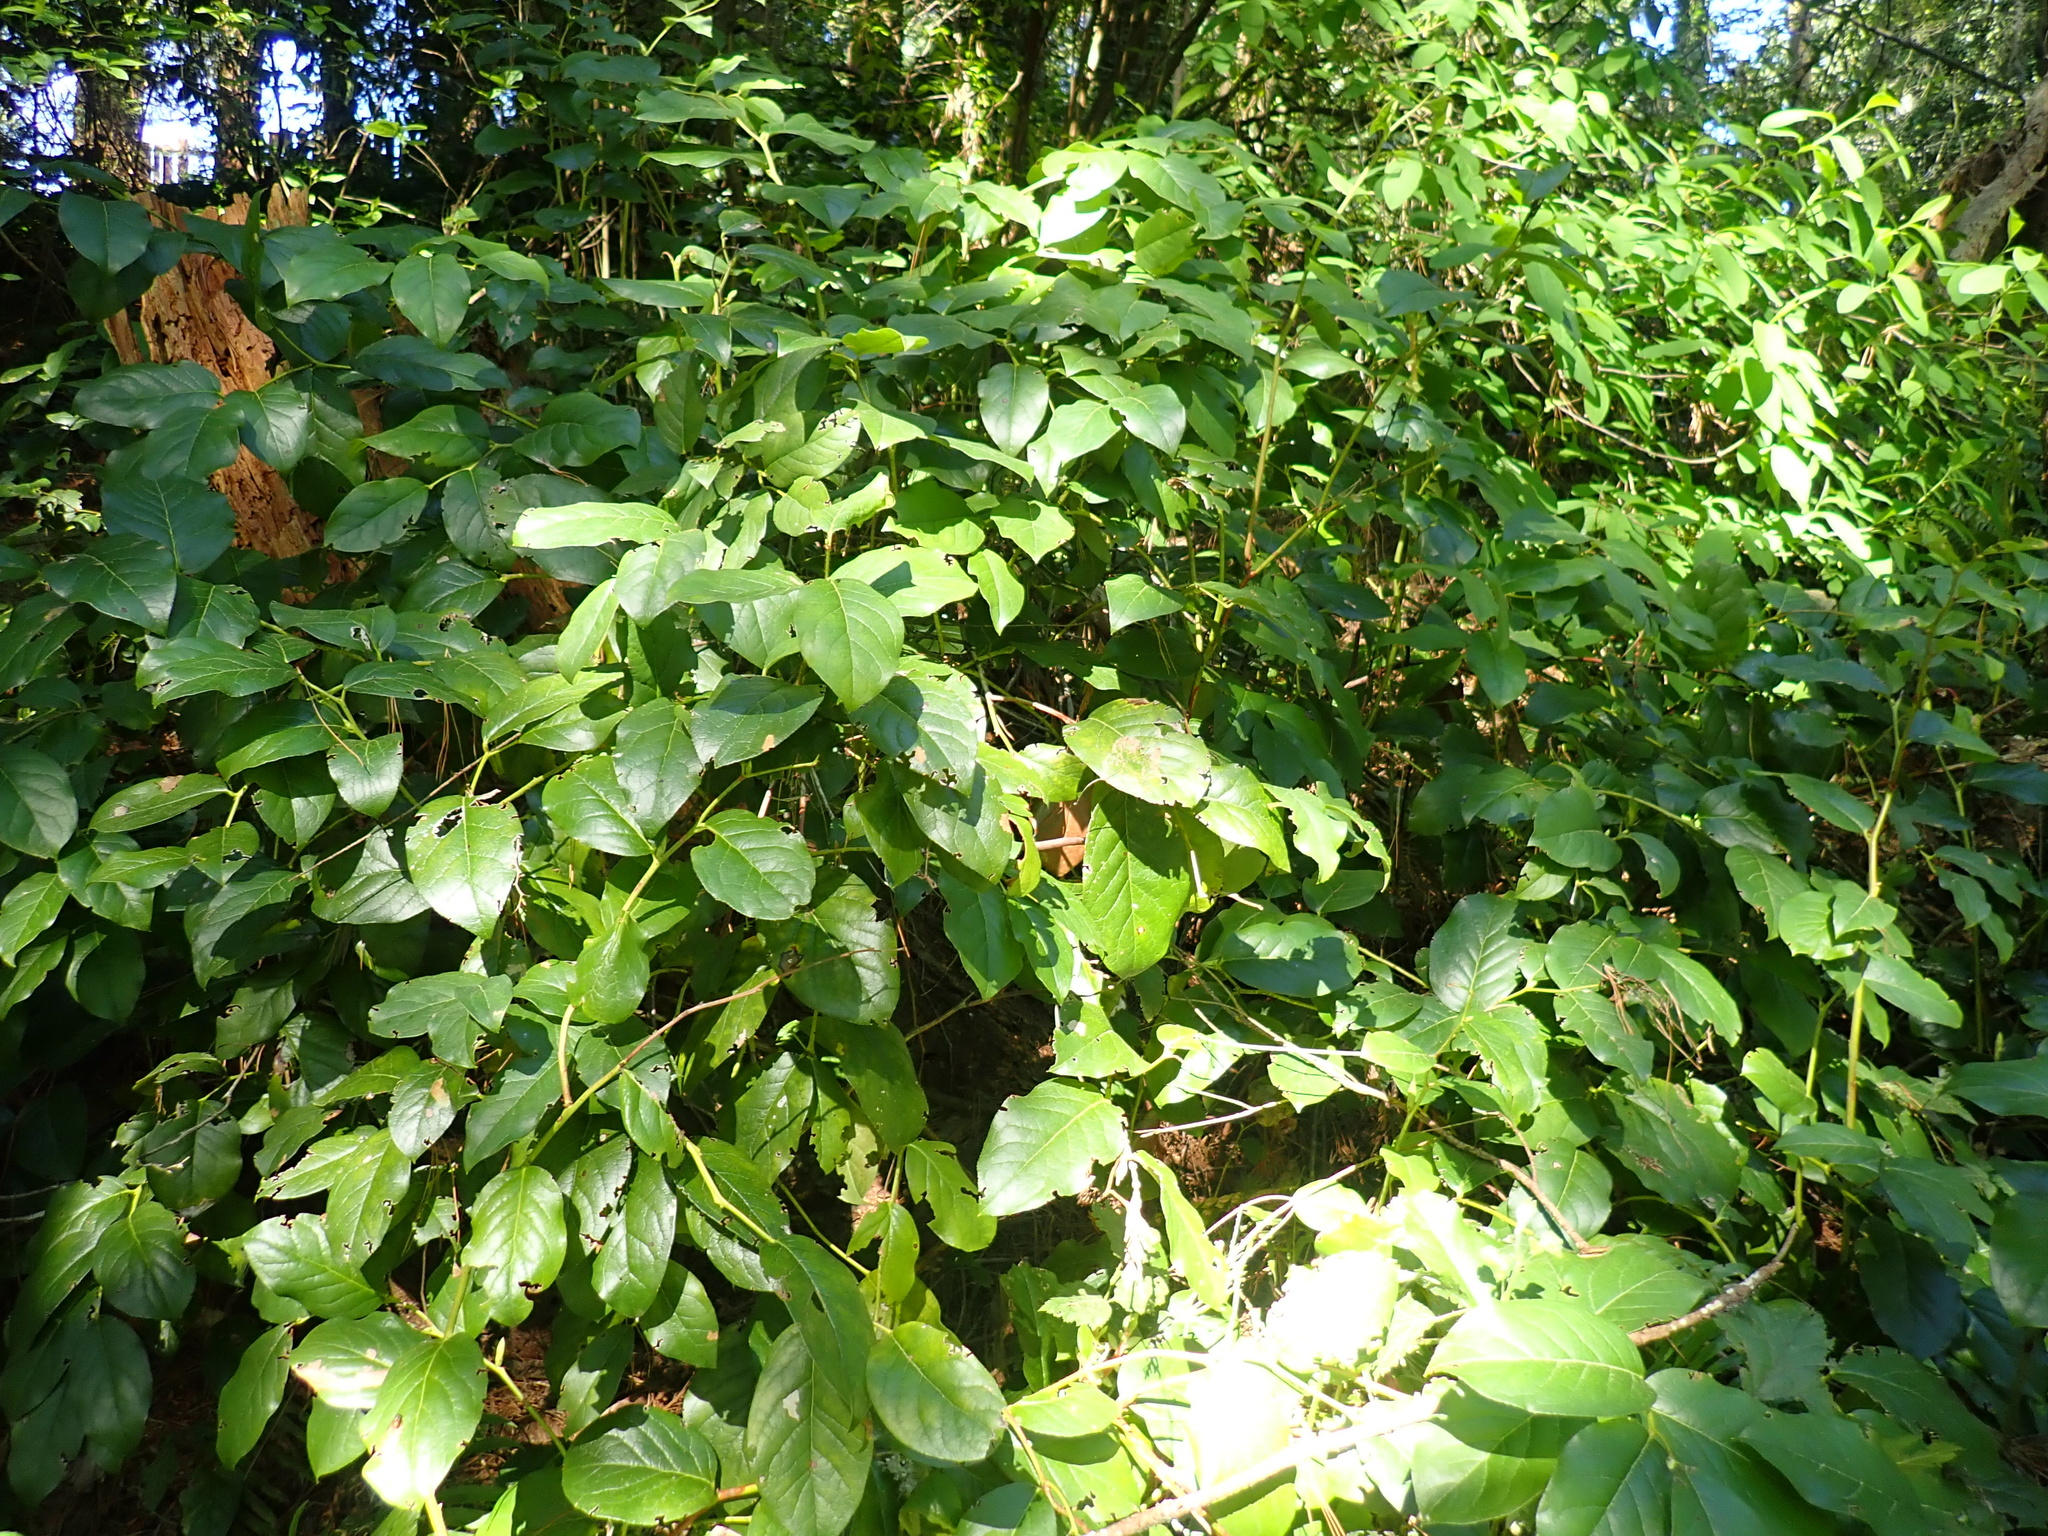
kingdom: Plantae
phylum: Tracheophyta
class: Magnoliopsida
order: Ericales
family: Ericaceae
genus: Gaultheria
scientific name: Gaultheria shallon
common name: Shallon
